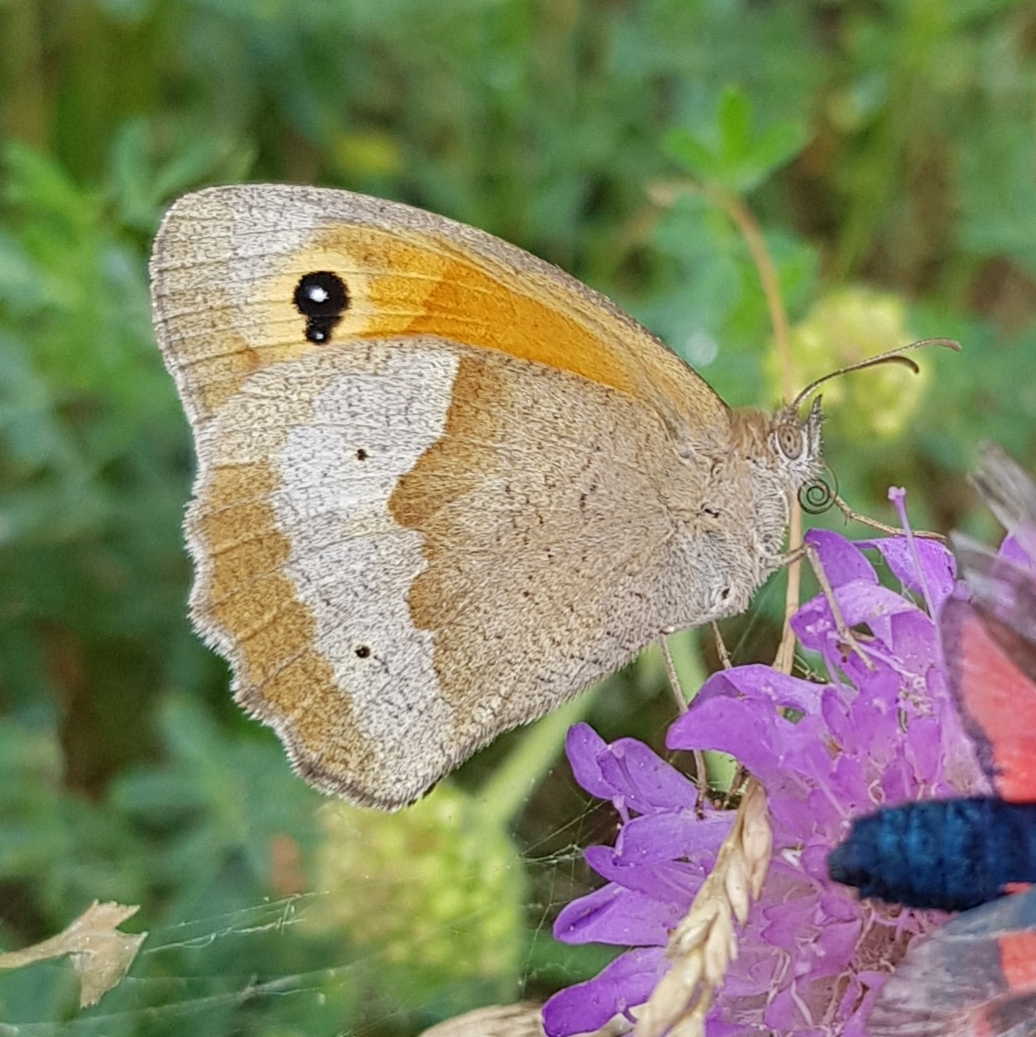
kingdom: Animalia
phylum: Arthropoda
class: Insecta
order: Lepidoptera
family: Nymphalidae
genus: Maniola
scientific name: Maniola jurtina
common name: Meadow brown
